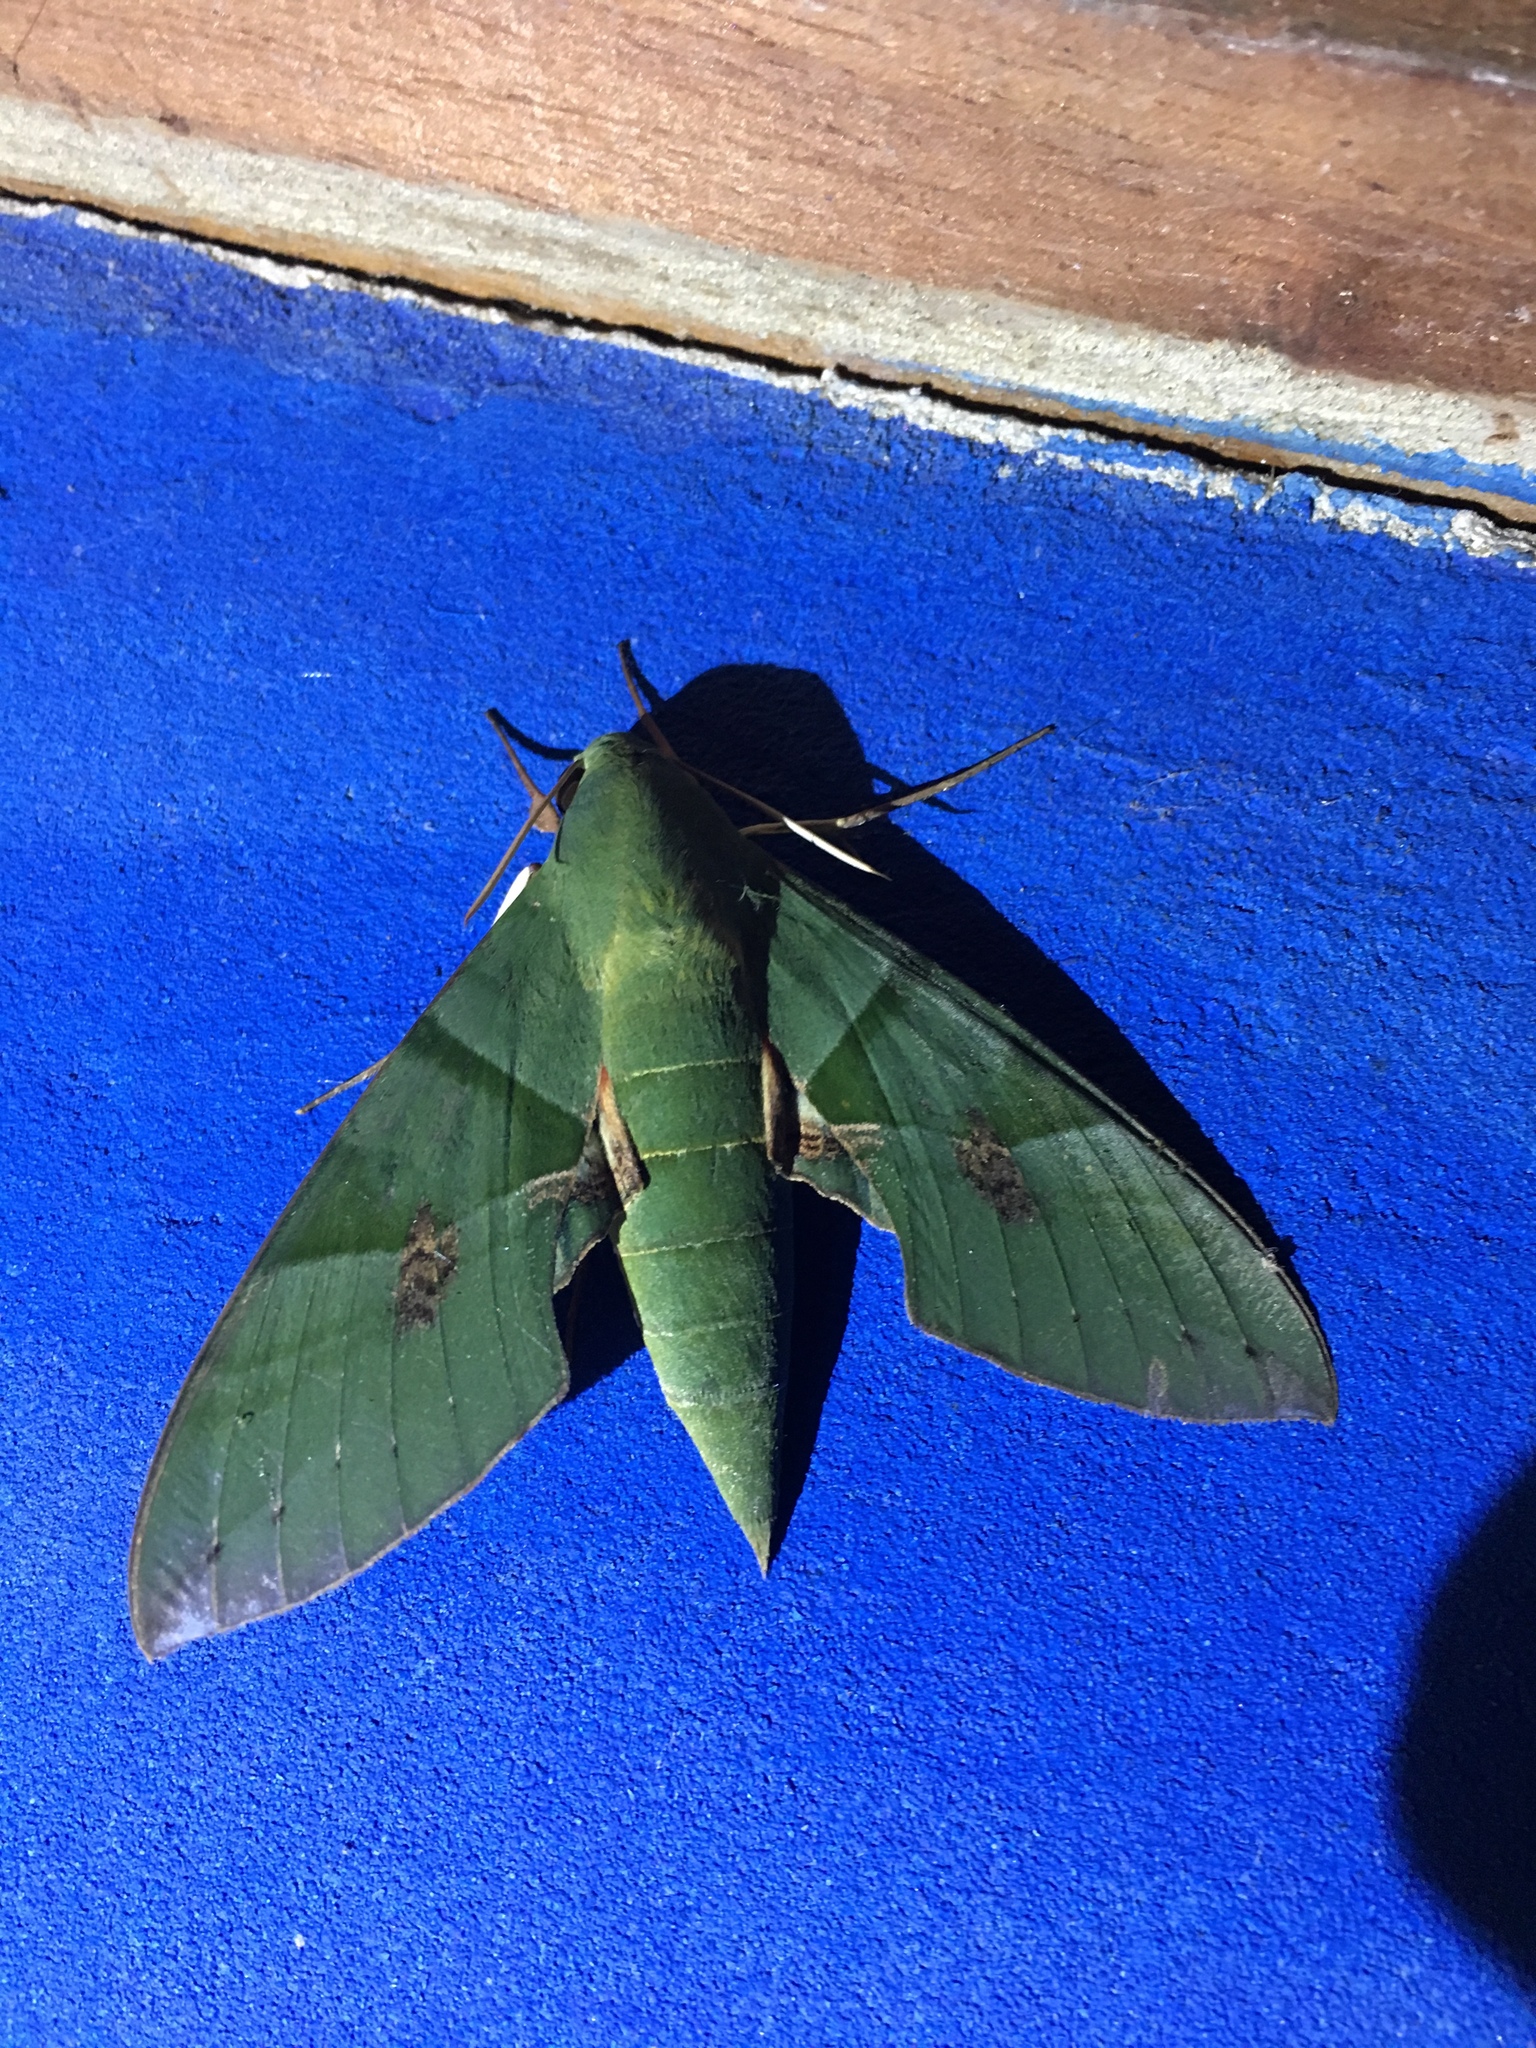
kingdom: Animalia
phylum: Arthropoda
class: Insecta
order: Lepidoptera
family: Sphingidae
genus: Eumorpha
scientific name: Eumorpha labruscae
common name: Gaudy sphinx
